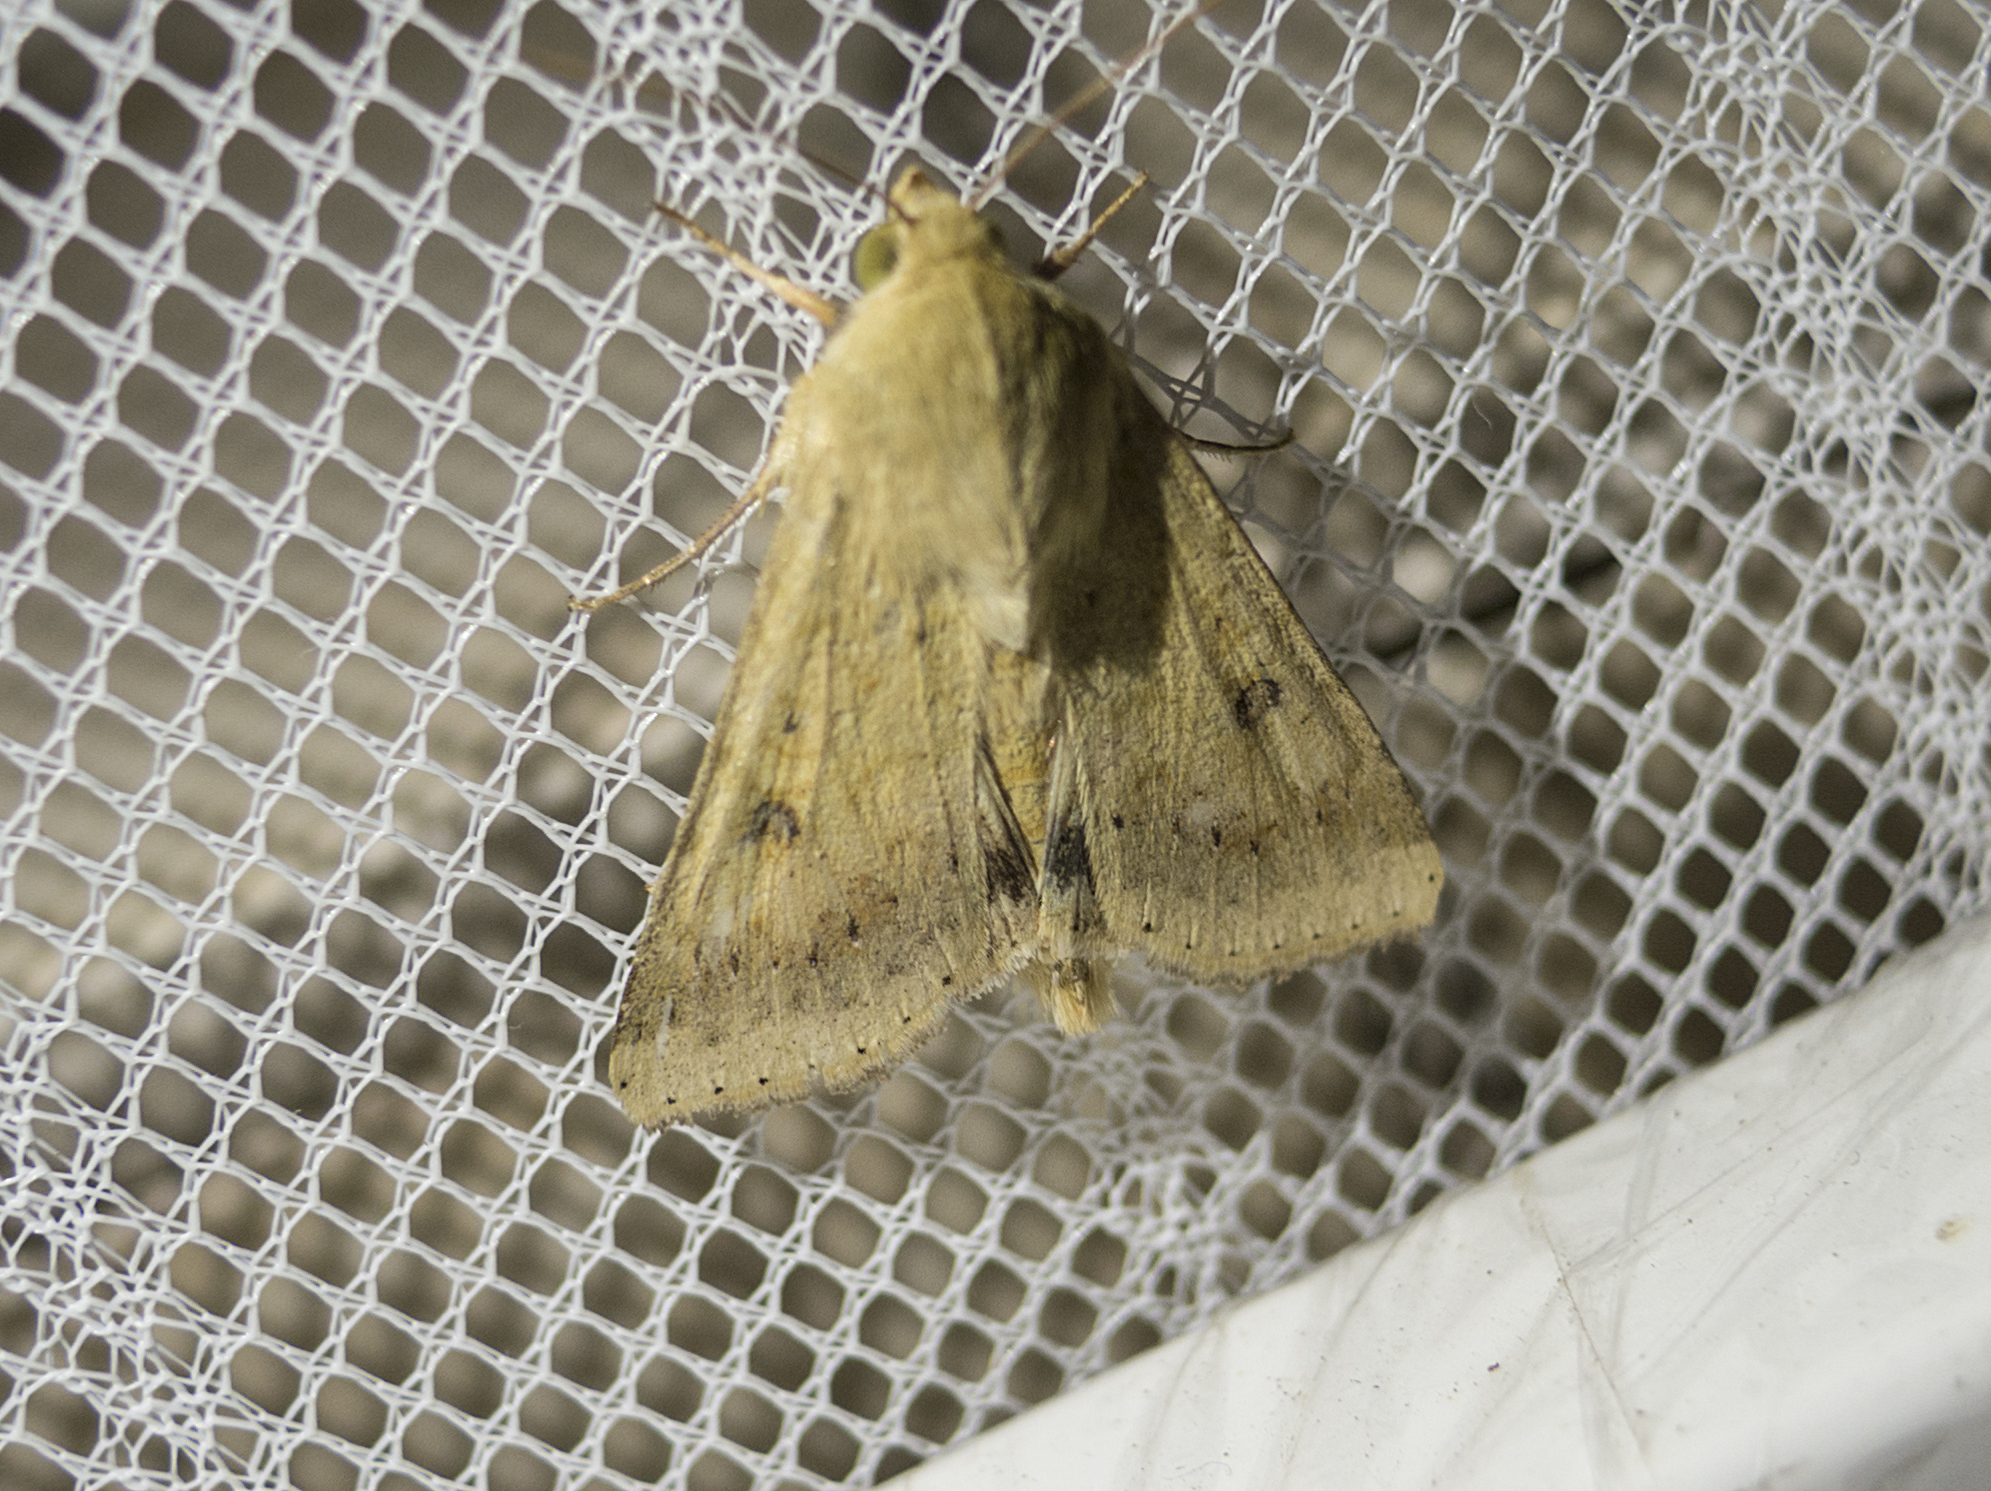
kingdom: Animalia
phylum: Arthropoda
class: Insecta
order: Lepidoptera
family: Noctuidae
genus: Helicoverpa
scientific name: Helicoverpa armigera
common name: Cotton bollworm
